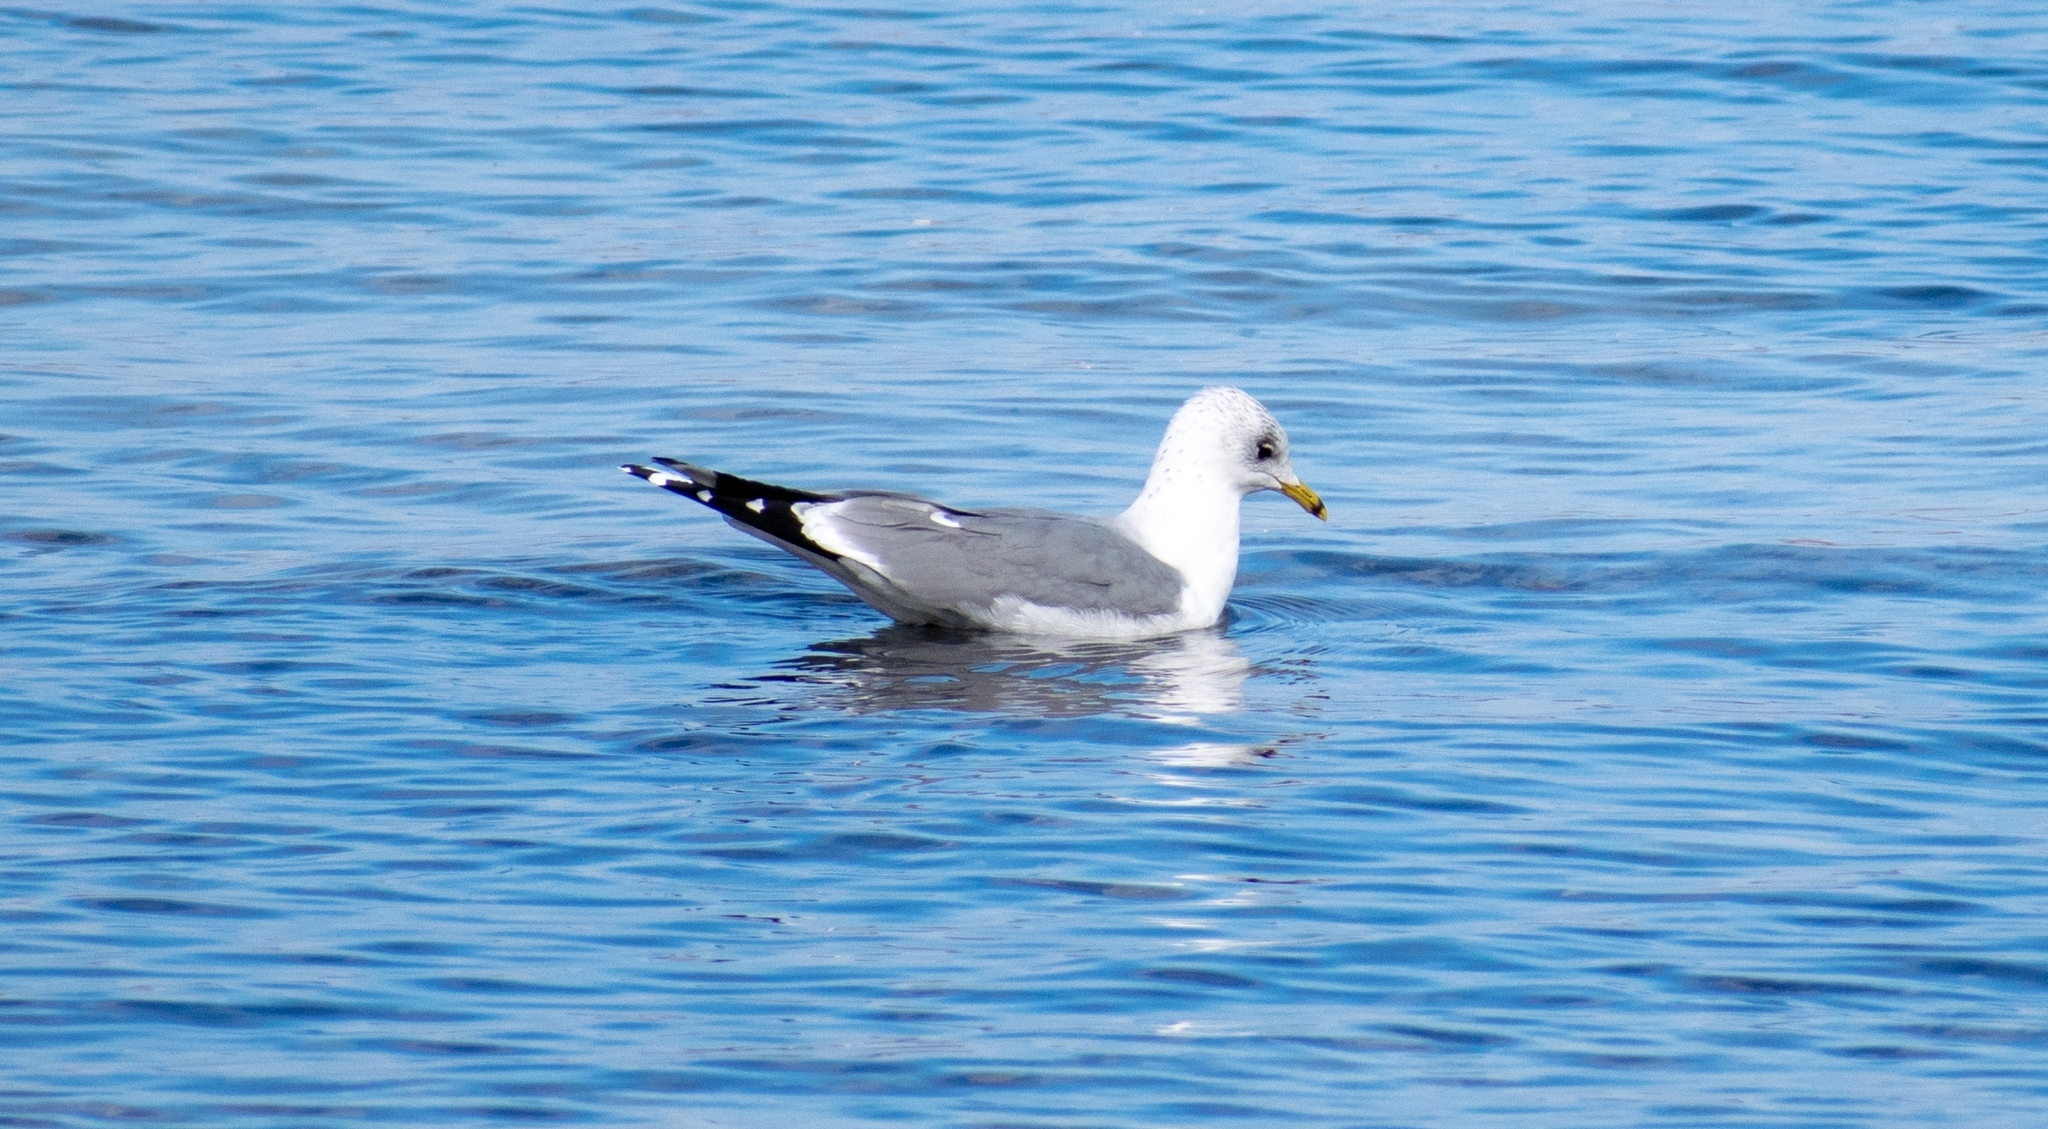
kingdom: Animalia
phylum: Chordata
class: Aves
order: Charadriiformes
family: Laridae
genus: Larus
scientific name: Larus canus
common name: Mew gull
